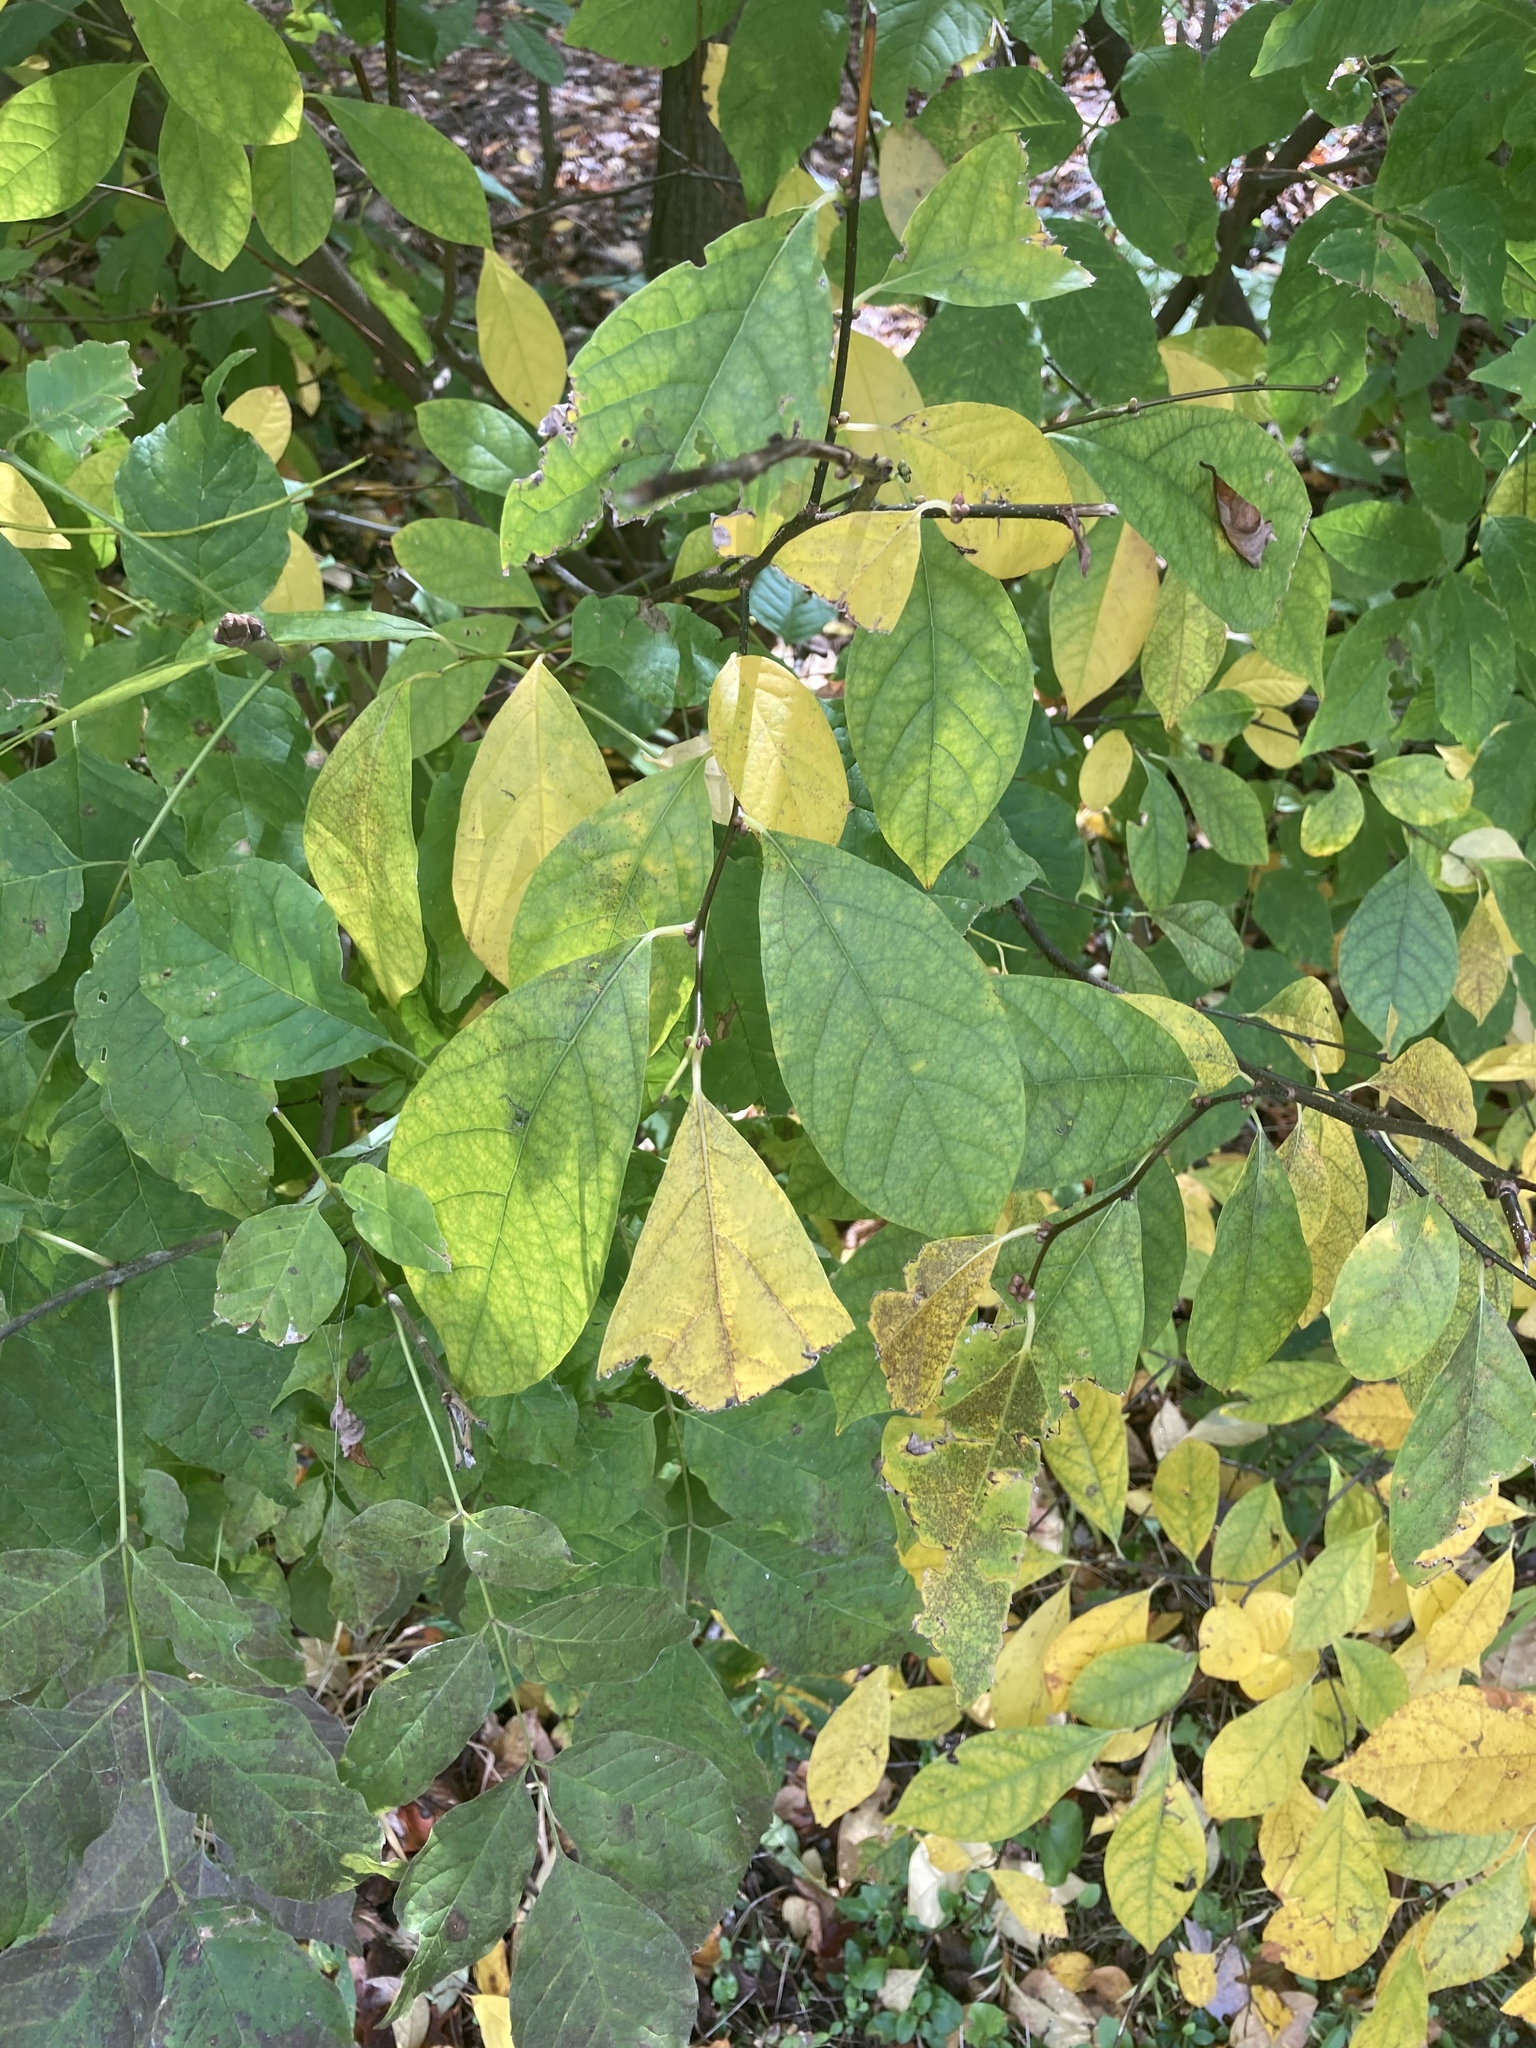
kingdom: Plantae
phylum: Tracheophyta
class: Magnoliopsida
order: Laurales
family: Lauraceae
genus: Lindera
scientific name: Lindera benzoin
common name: Spicebush
